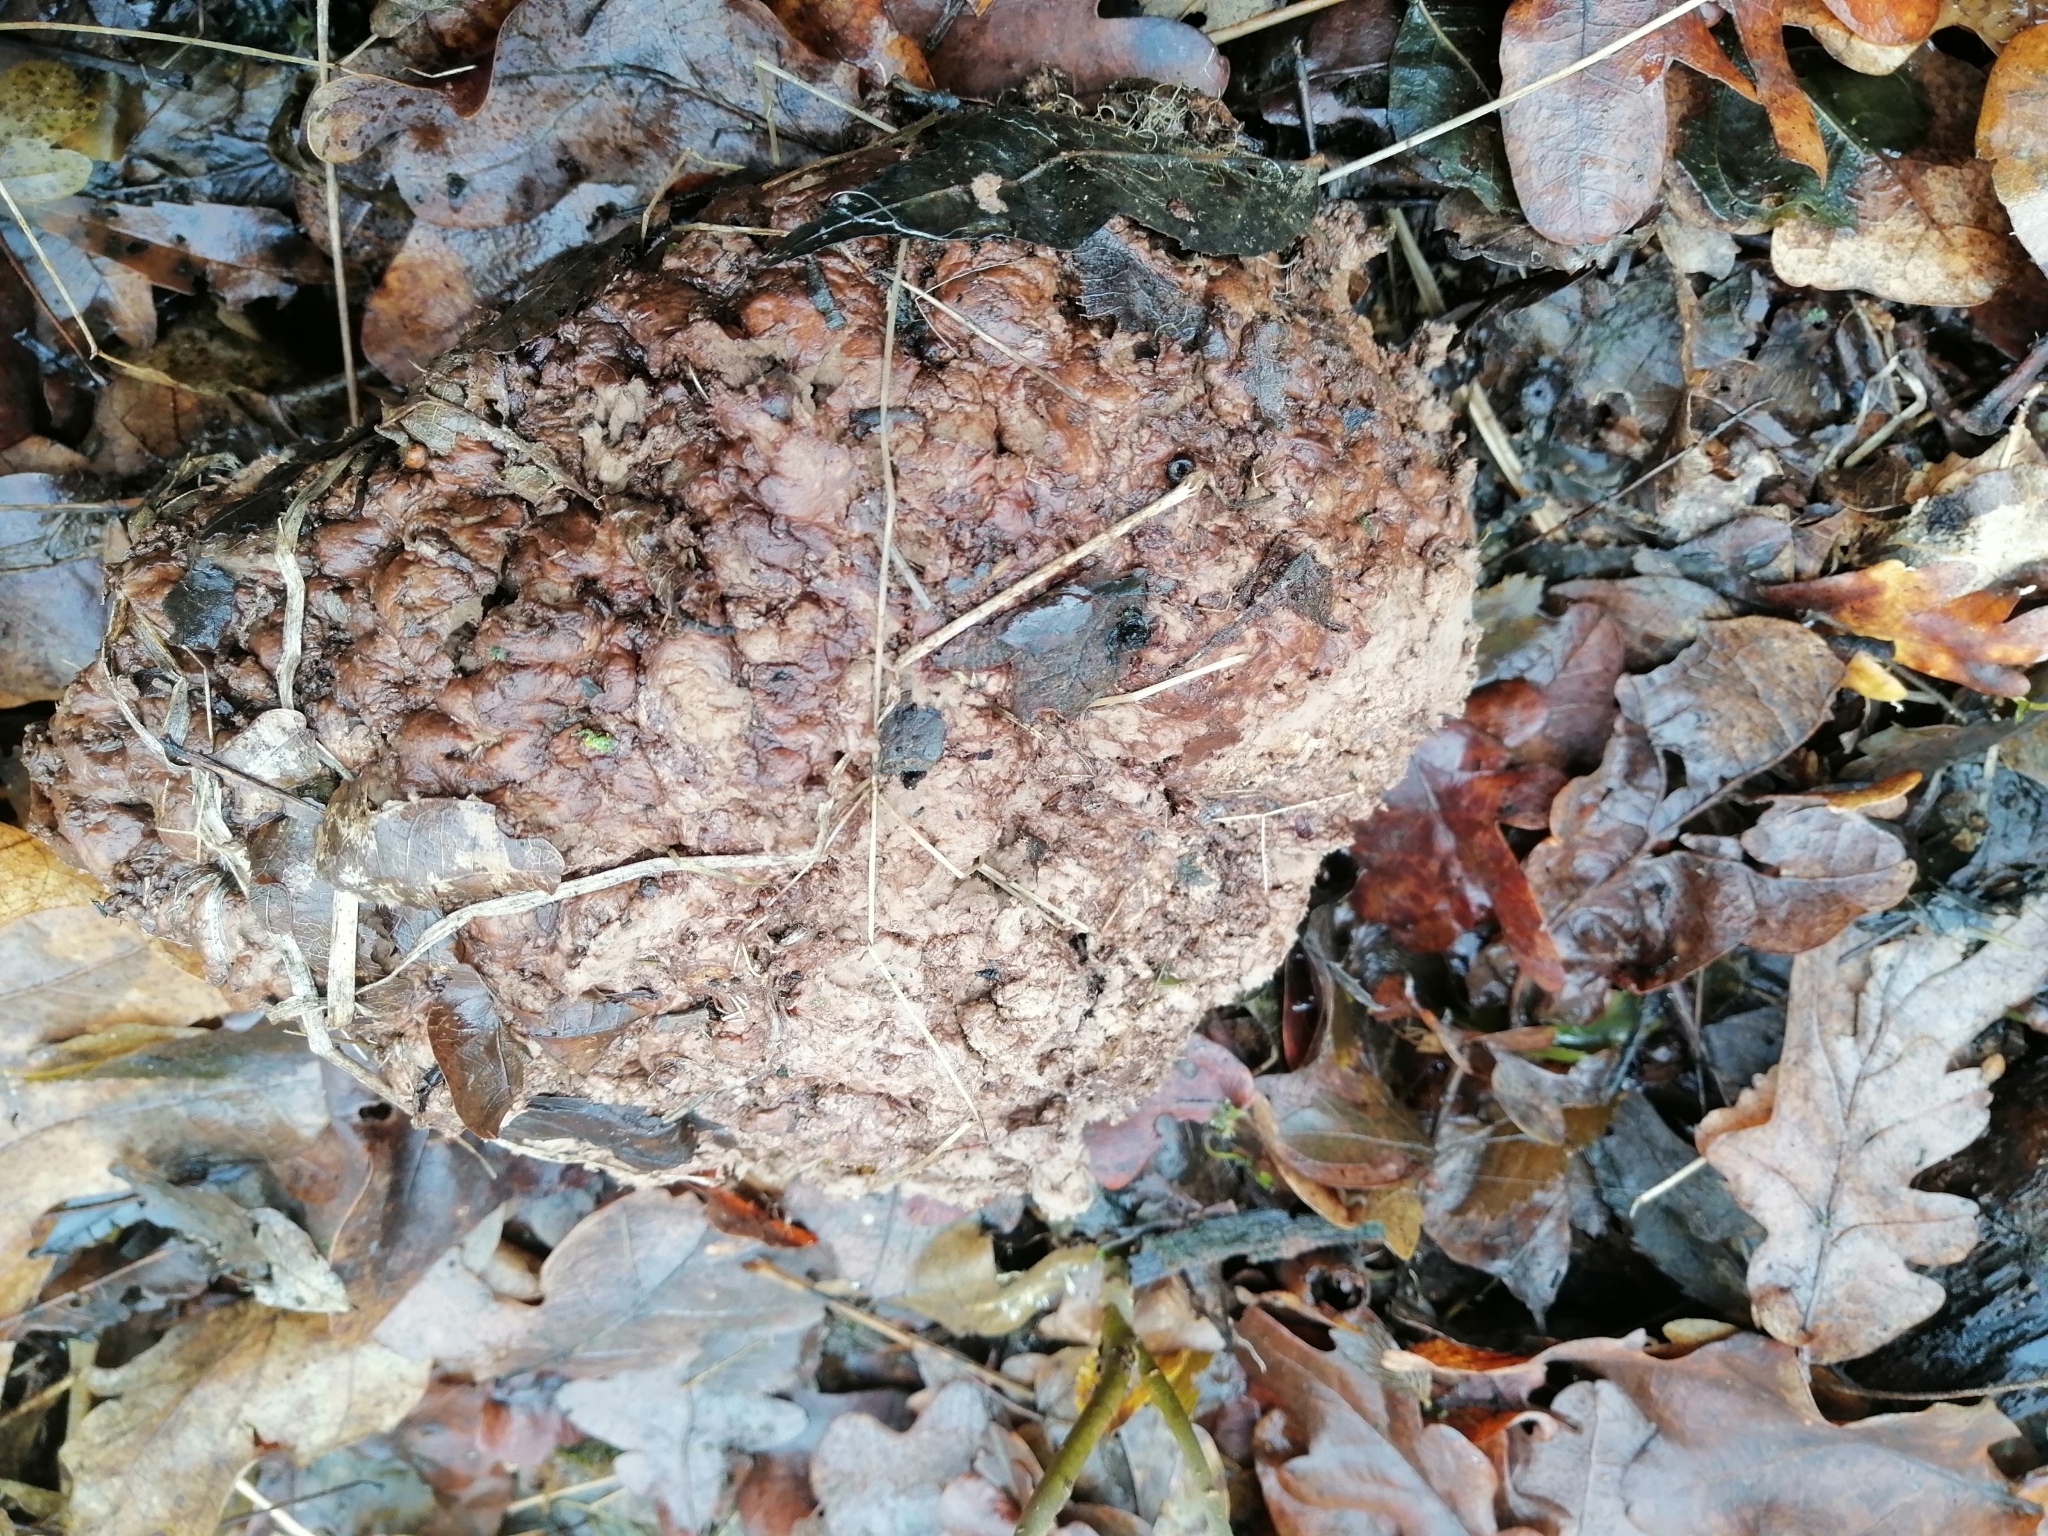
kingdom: Fungi
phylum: Basidiomycota
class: Agaricomycetes
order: Agaricales
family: Lycoperdaceae
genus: Calvatia
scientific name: Calvatia gigantea
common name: Giant puffball
